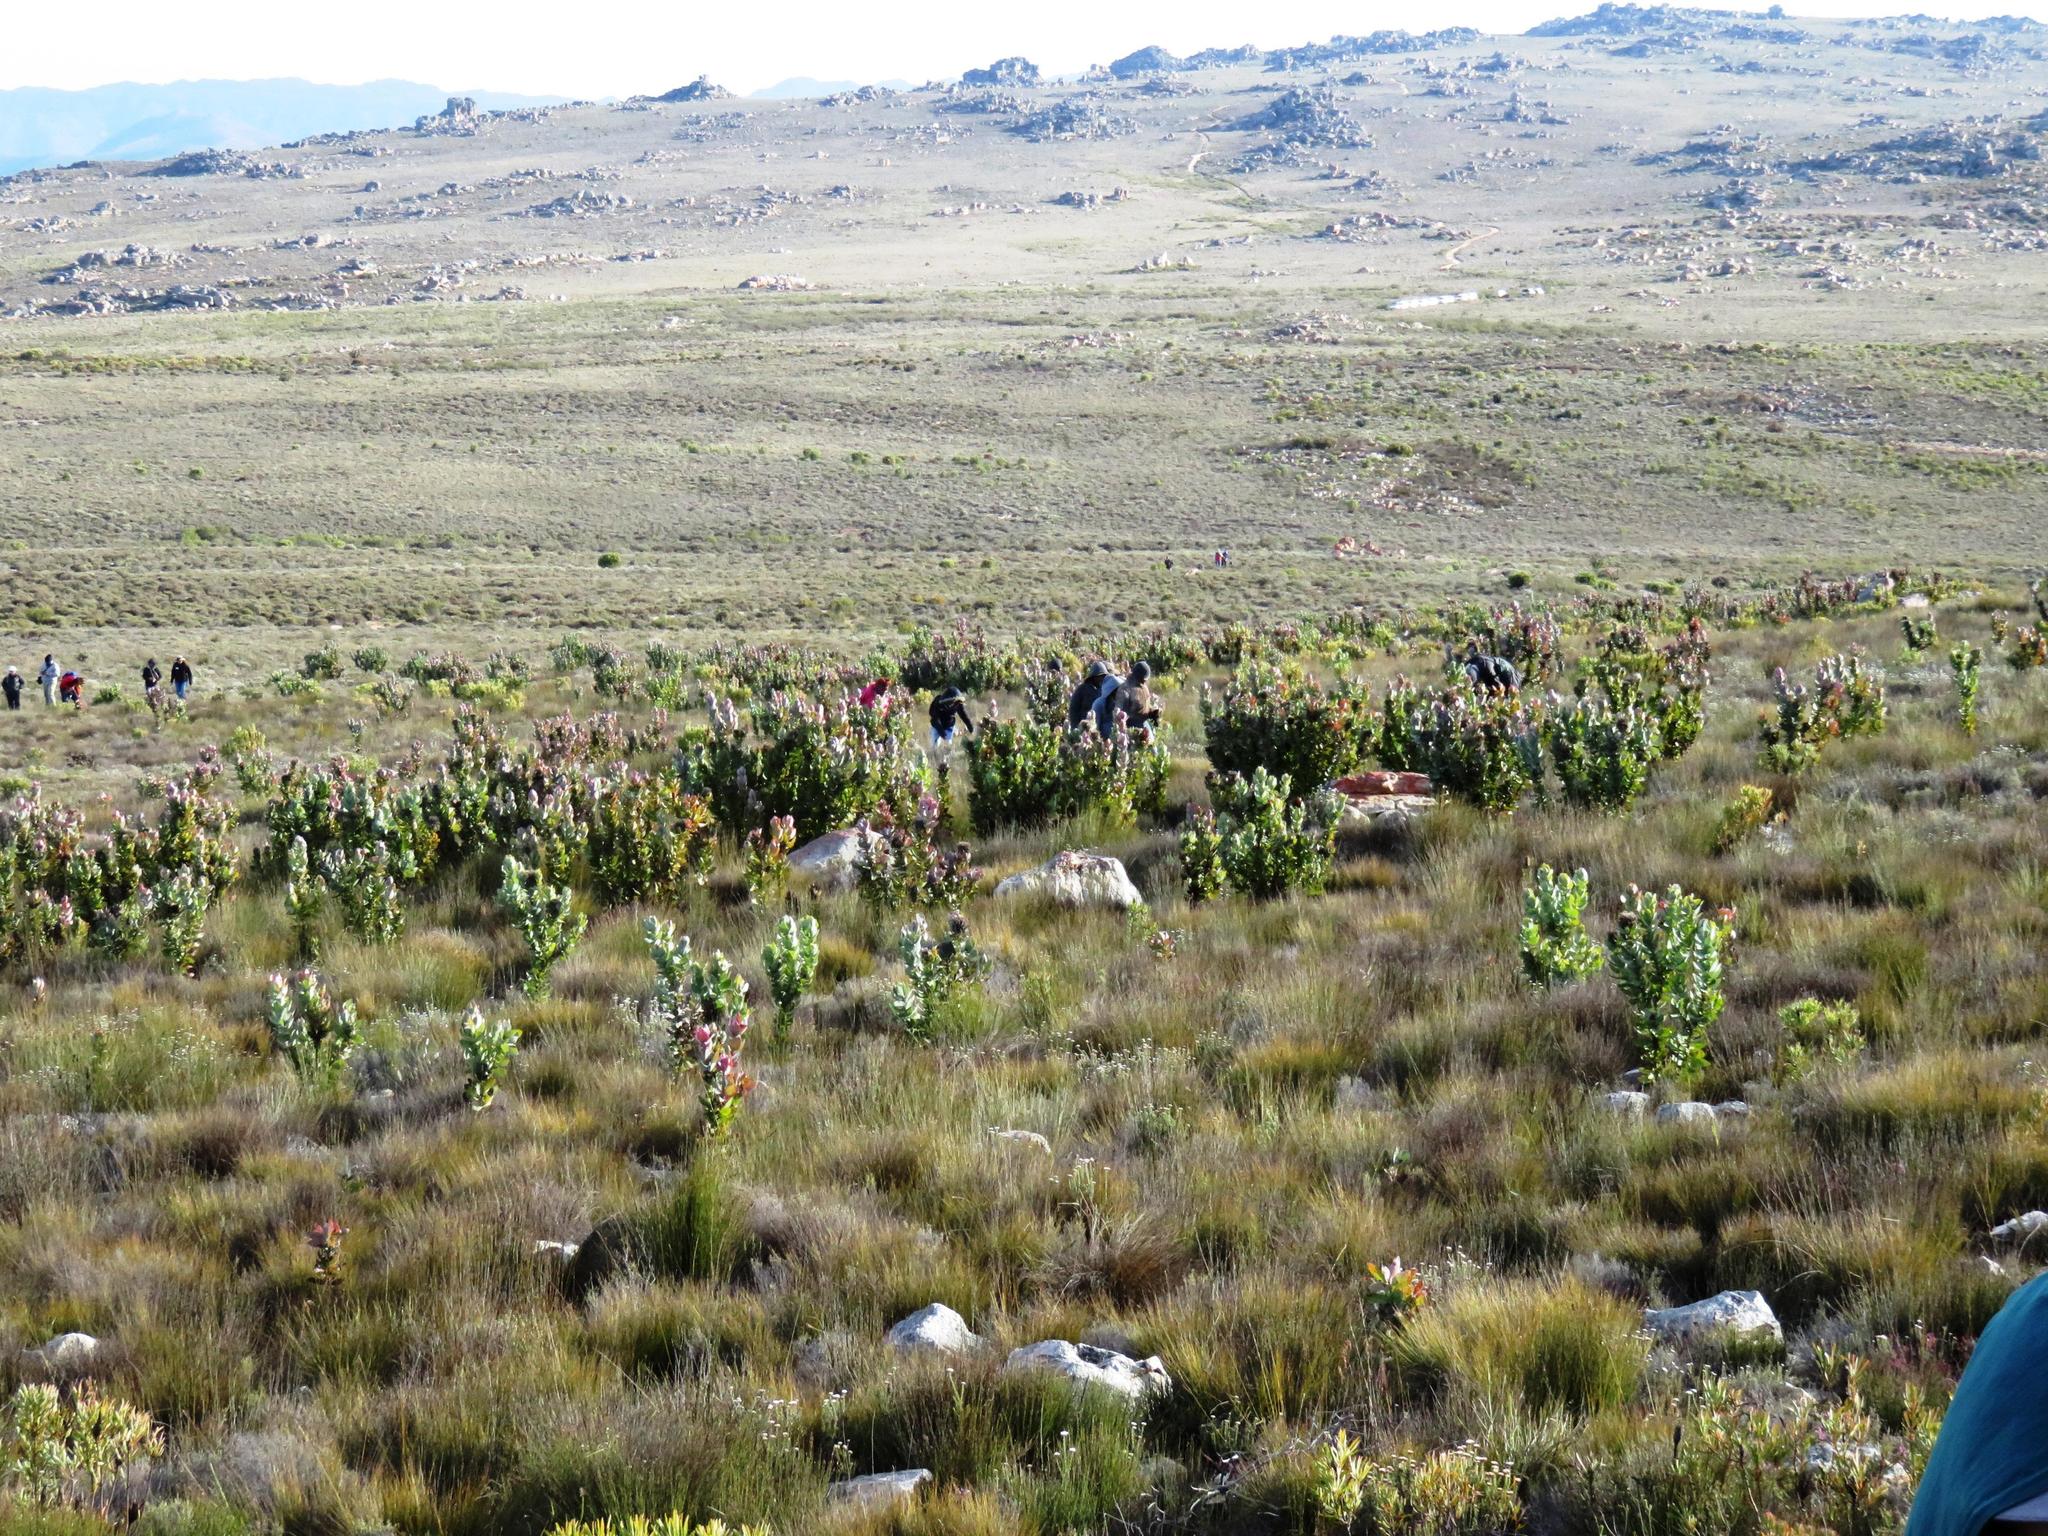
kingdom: Plantae
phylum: Tracheophyta
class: Magnoliopsida
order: Proteales
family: Proteaceae
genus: Protea
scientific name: Protea eximia
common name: Broad-leaved sugarbush
